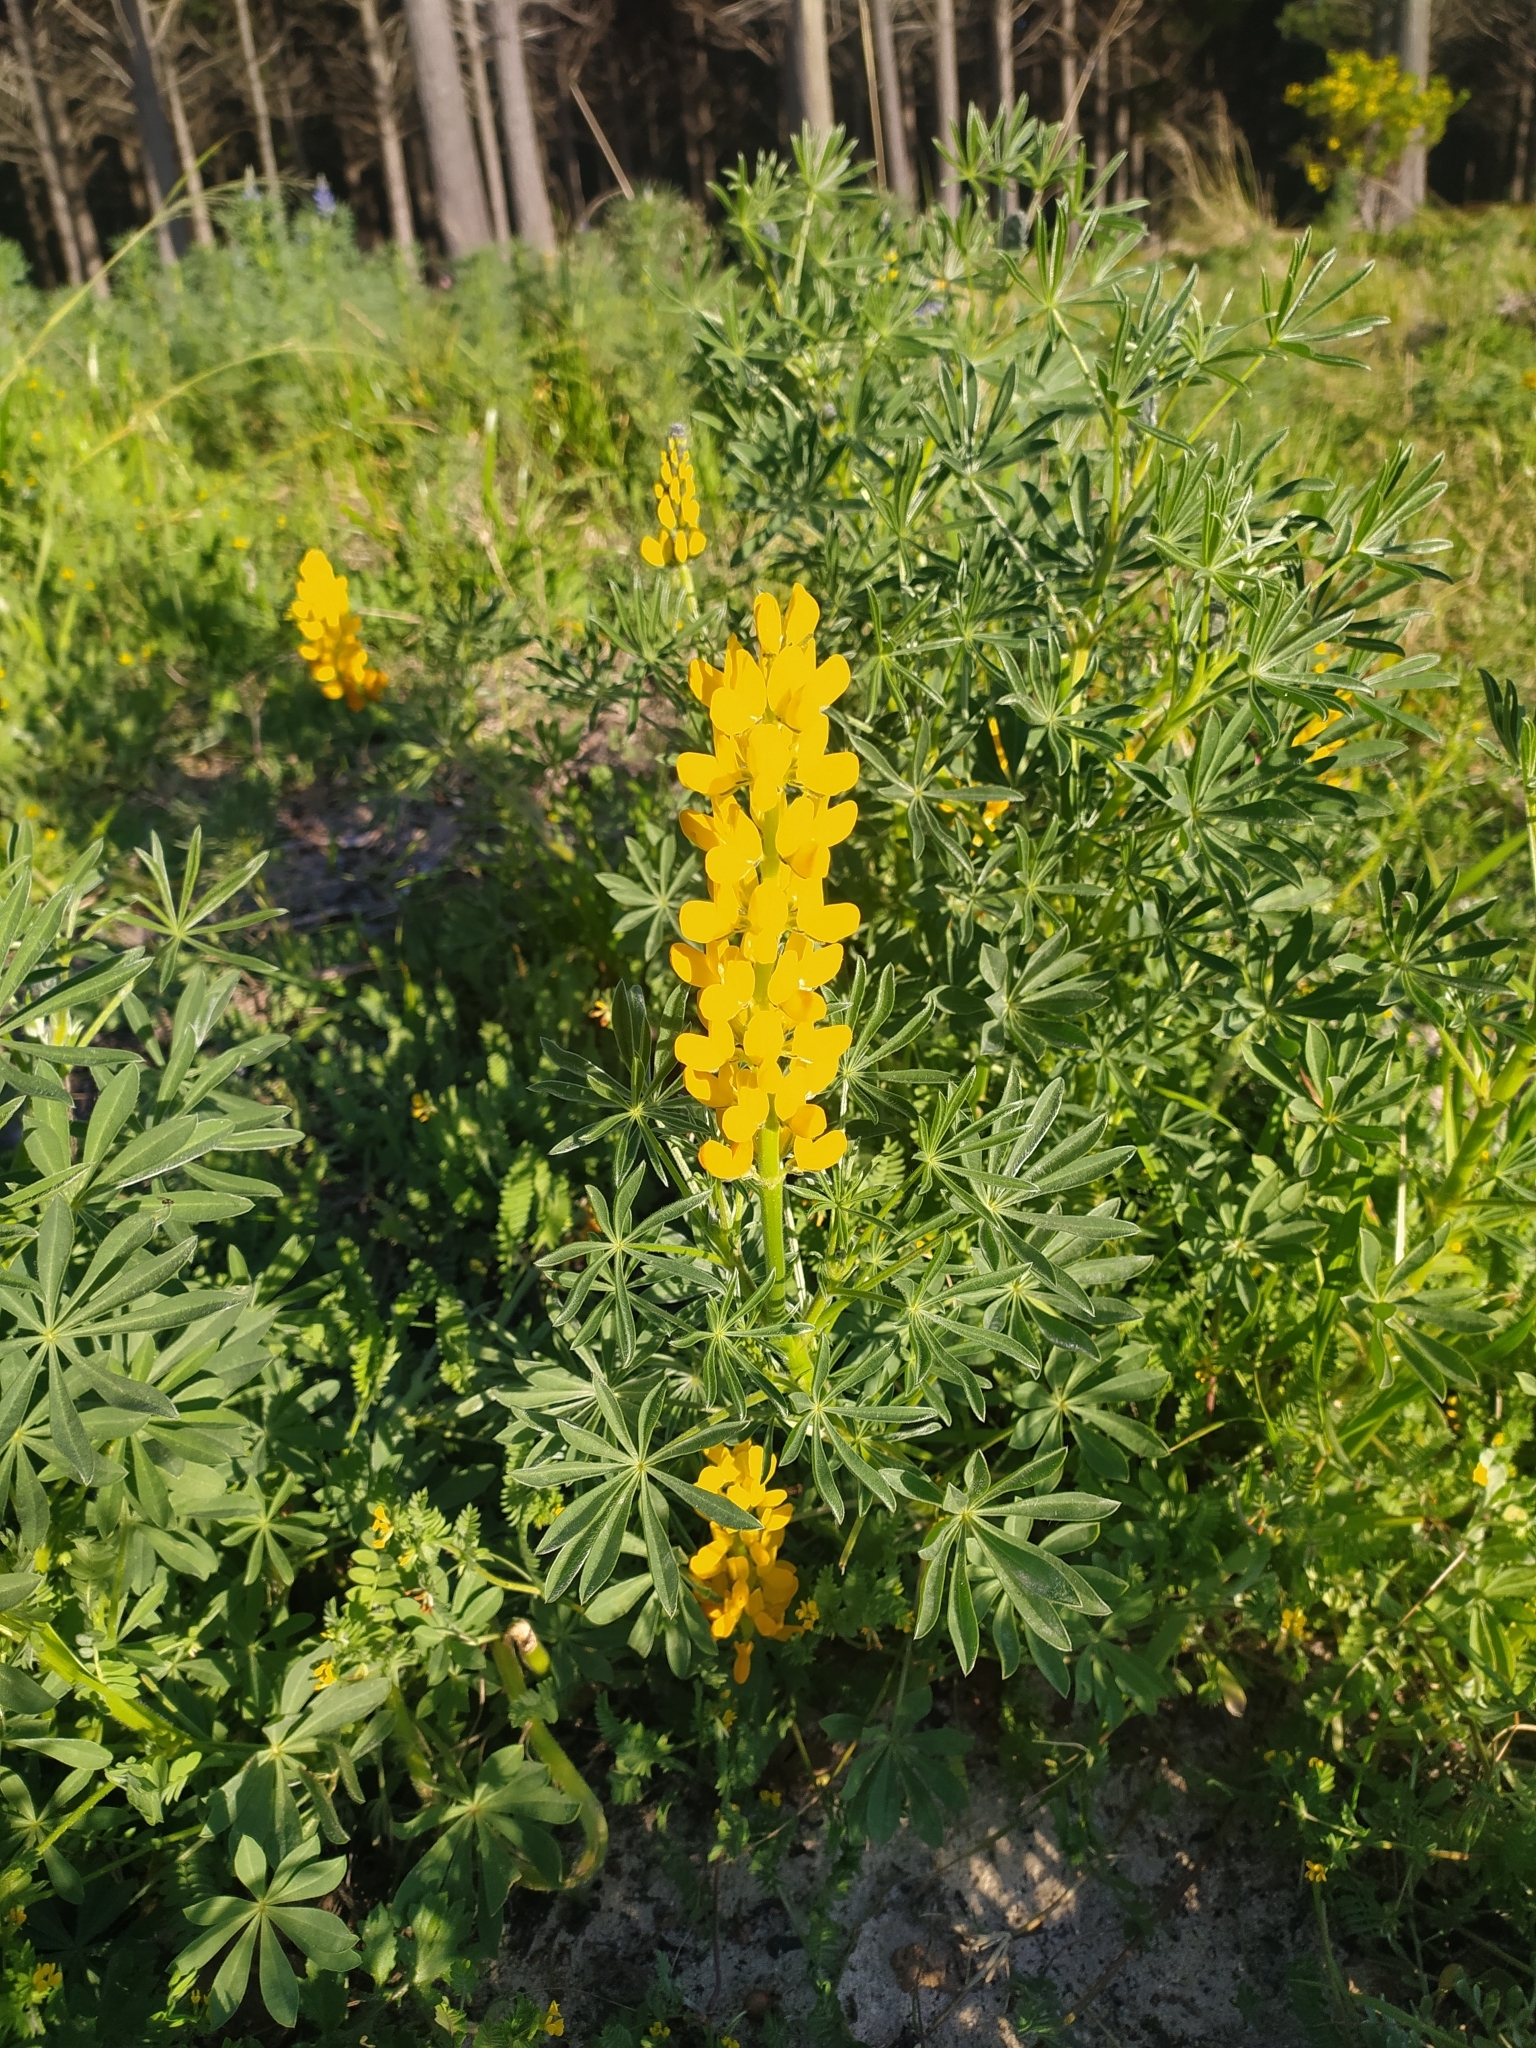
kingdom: Plantae
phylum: Tracheophyta
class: Magnoliopsida
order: Fabales
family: Fabaceae
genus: Lupinus
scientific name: Lupinus luteus
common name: European yellow lupine
